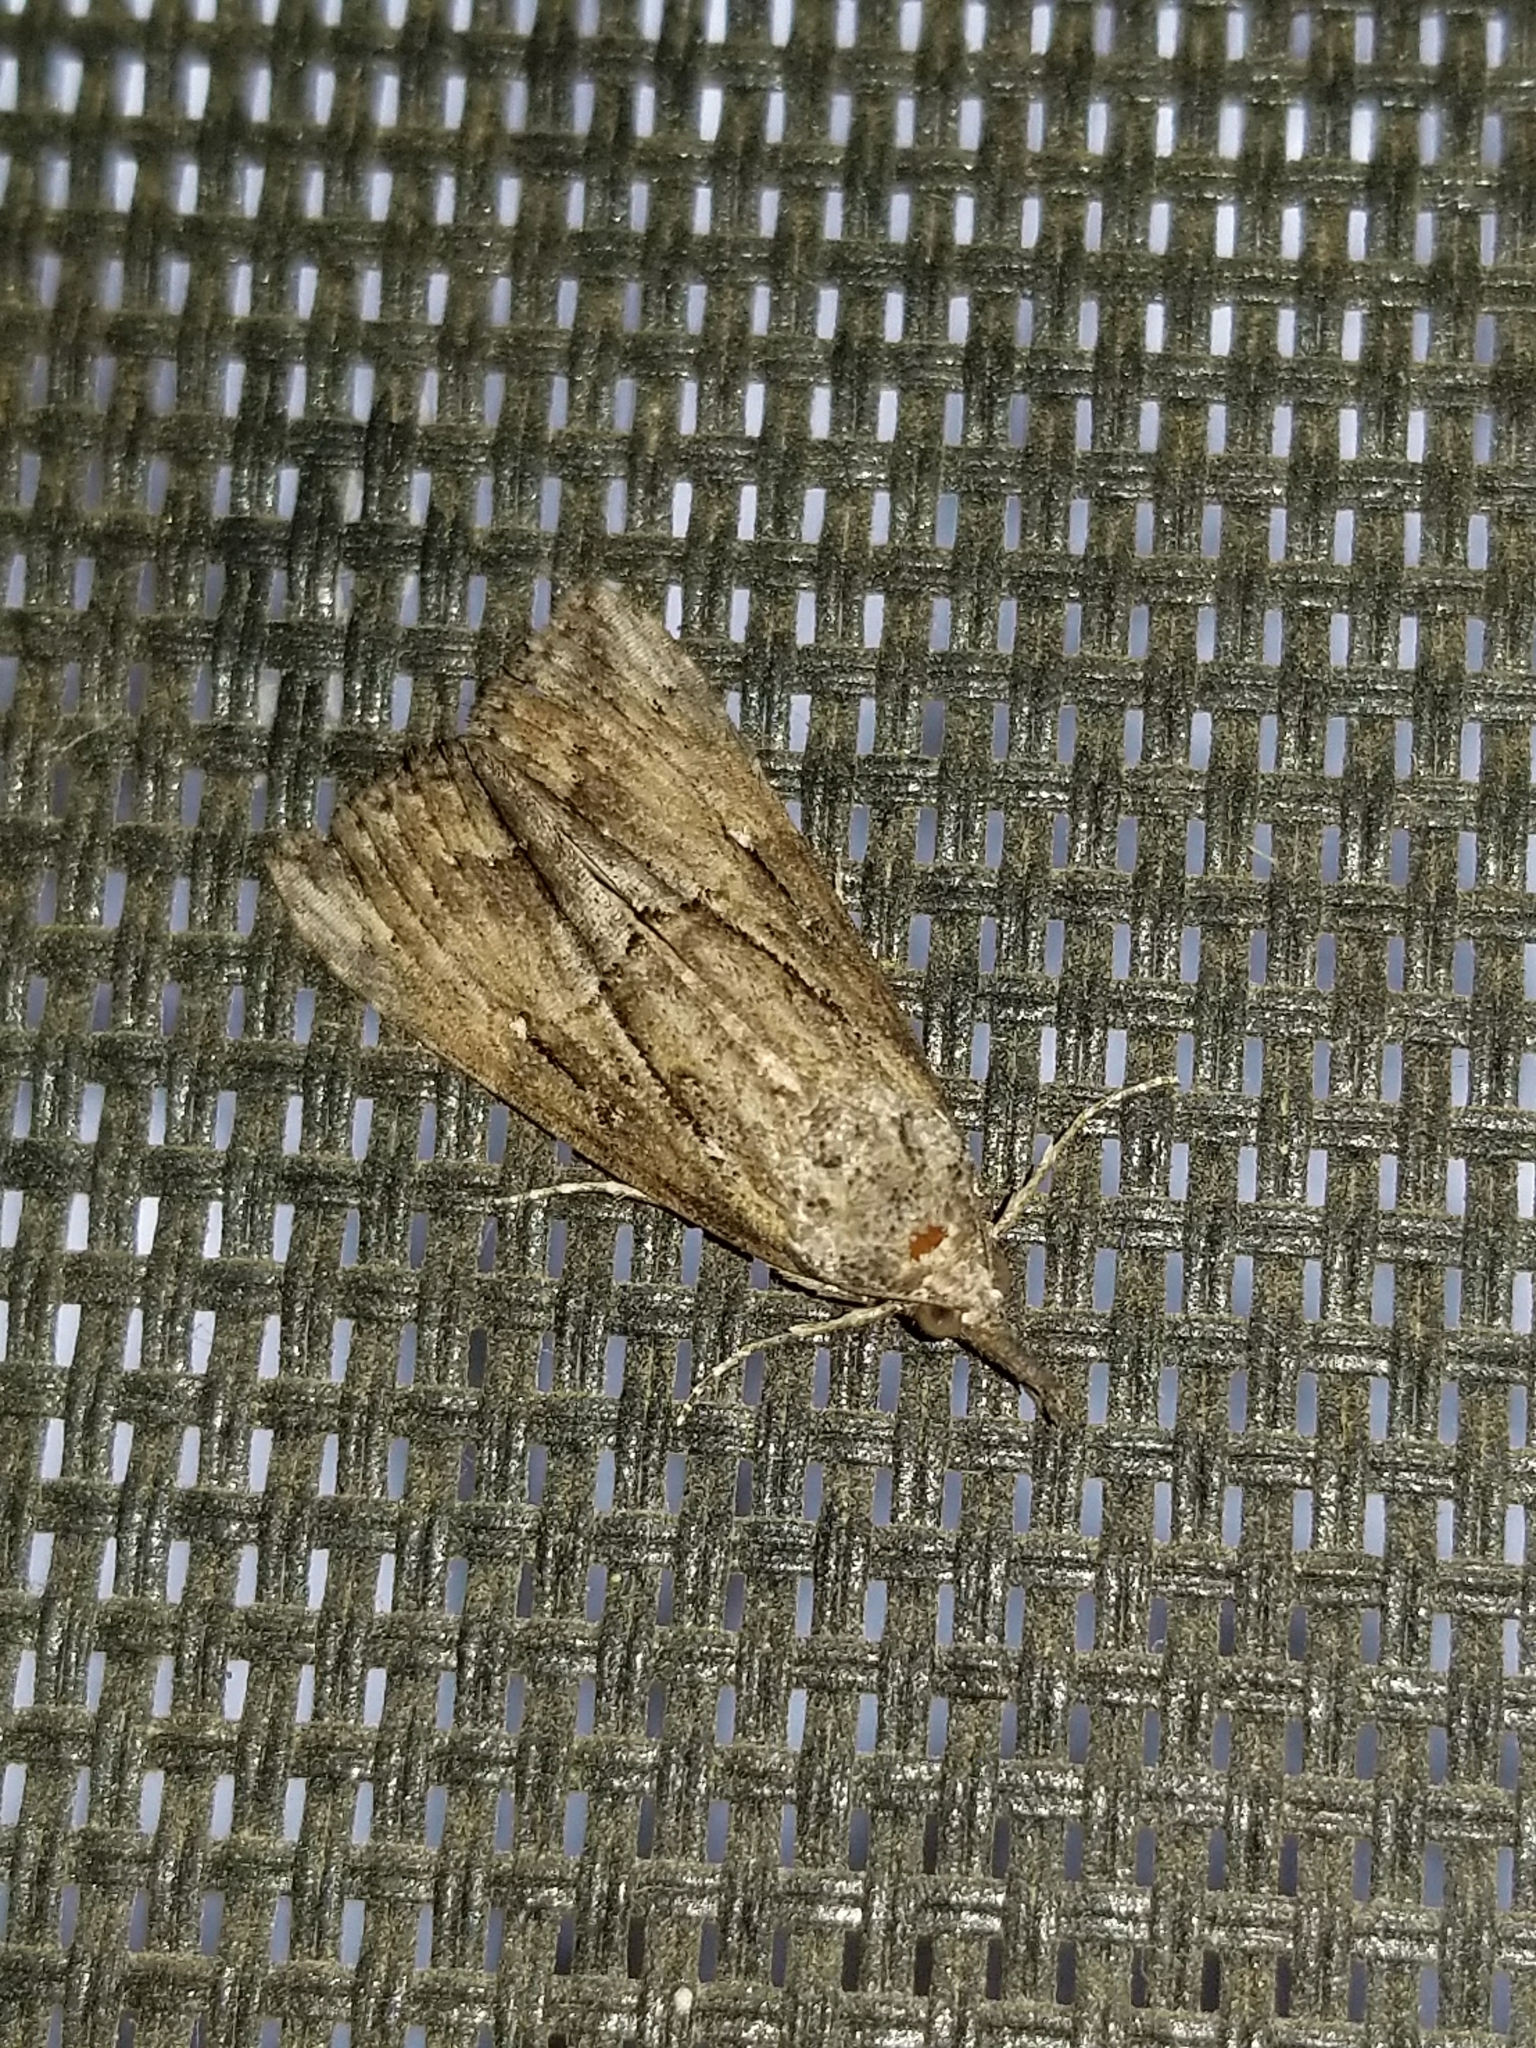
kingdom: Animalia
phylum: Arthropoda
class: Insecta
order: Lepidoptera
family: Erebidae
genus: Hypena
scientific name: Hypena scabra
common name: Green cloverworm
